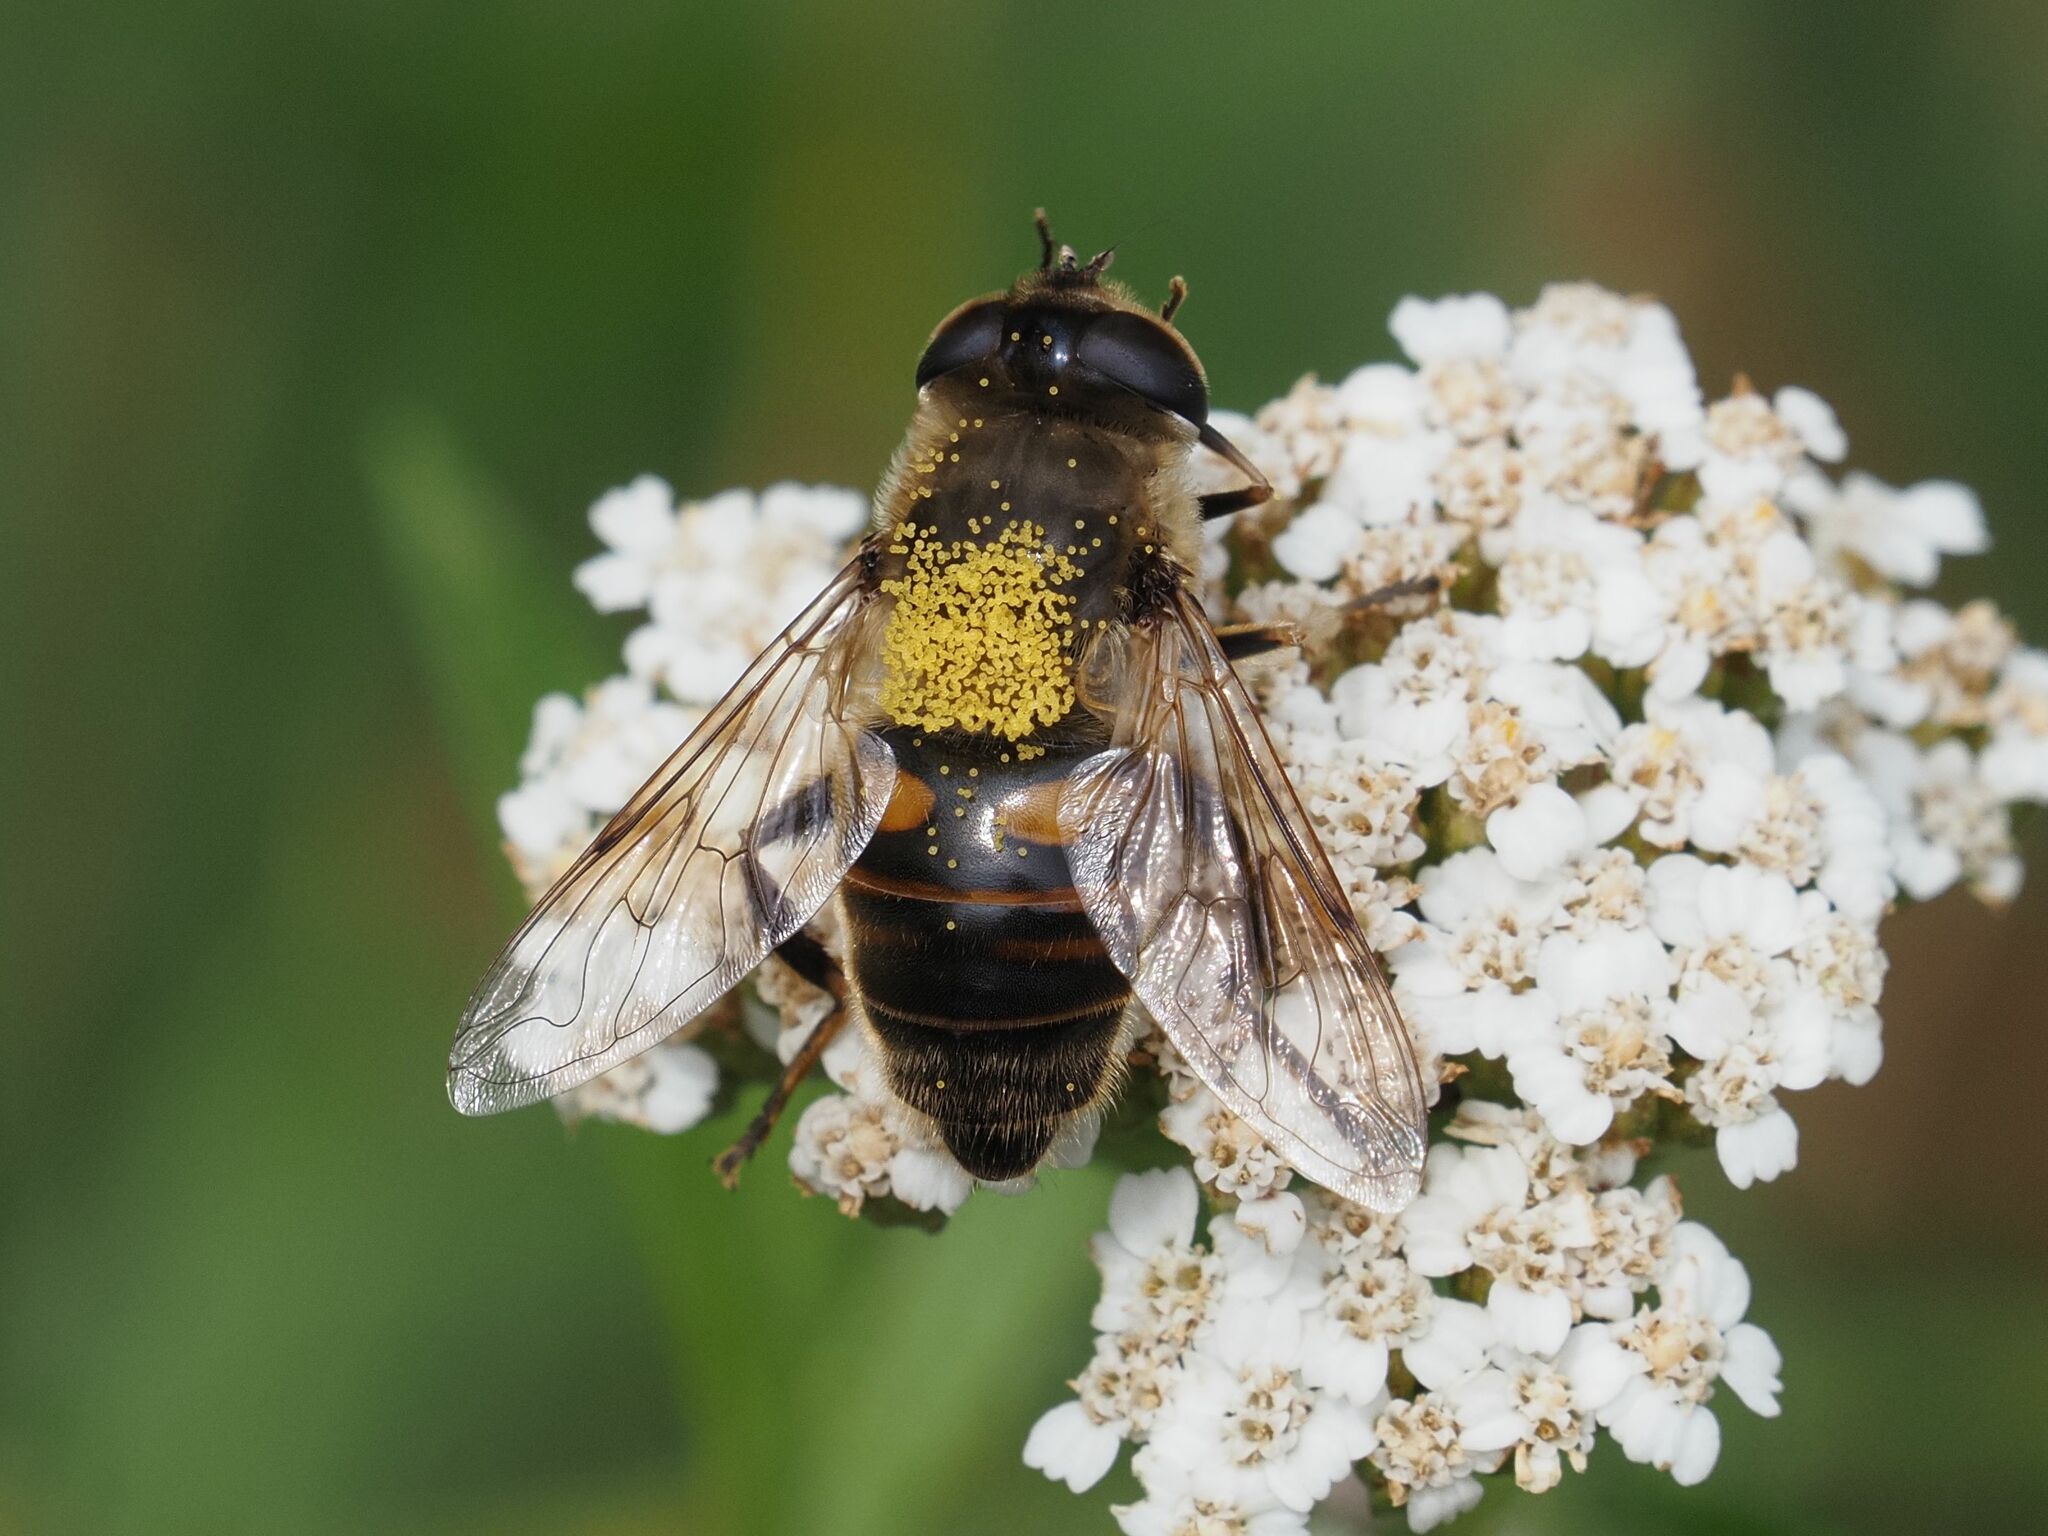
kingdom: Animalia
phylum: Arthropoda
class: Insecta
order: Diptera
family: Syrphidae
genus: Eristalis
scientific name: Eristalis tenax
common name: Drone fly
